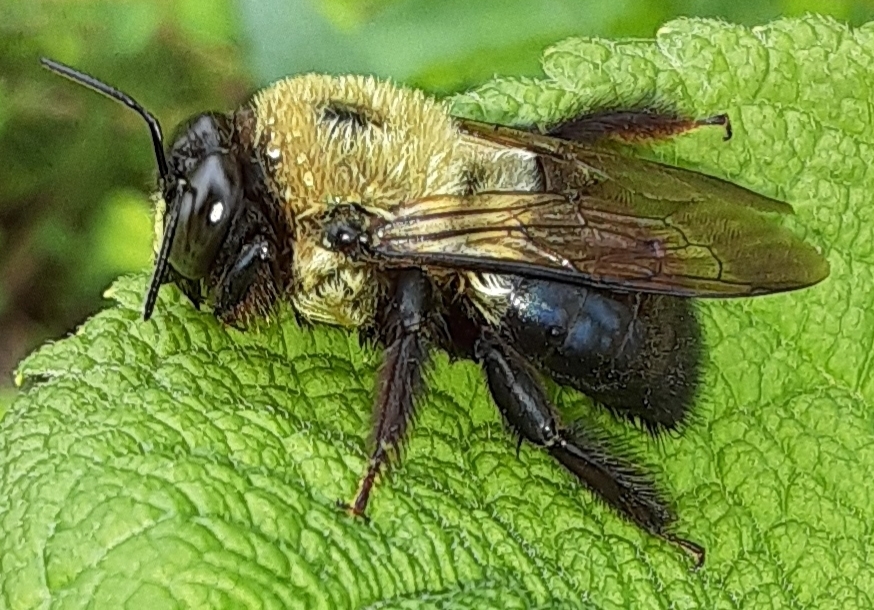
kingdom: Animalia
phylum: Arthropoda
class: Insecta
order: Hymenoptera
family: Apidae
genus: Xylocopa
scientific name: Xylocopa virginica
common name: Carpenter bee
